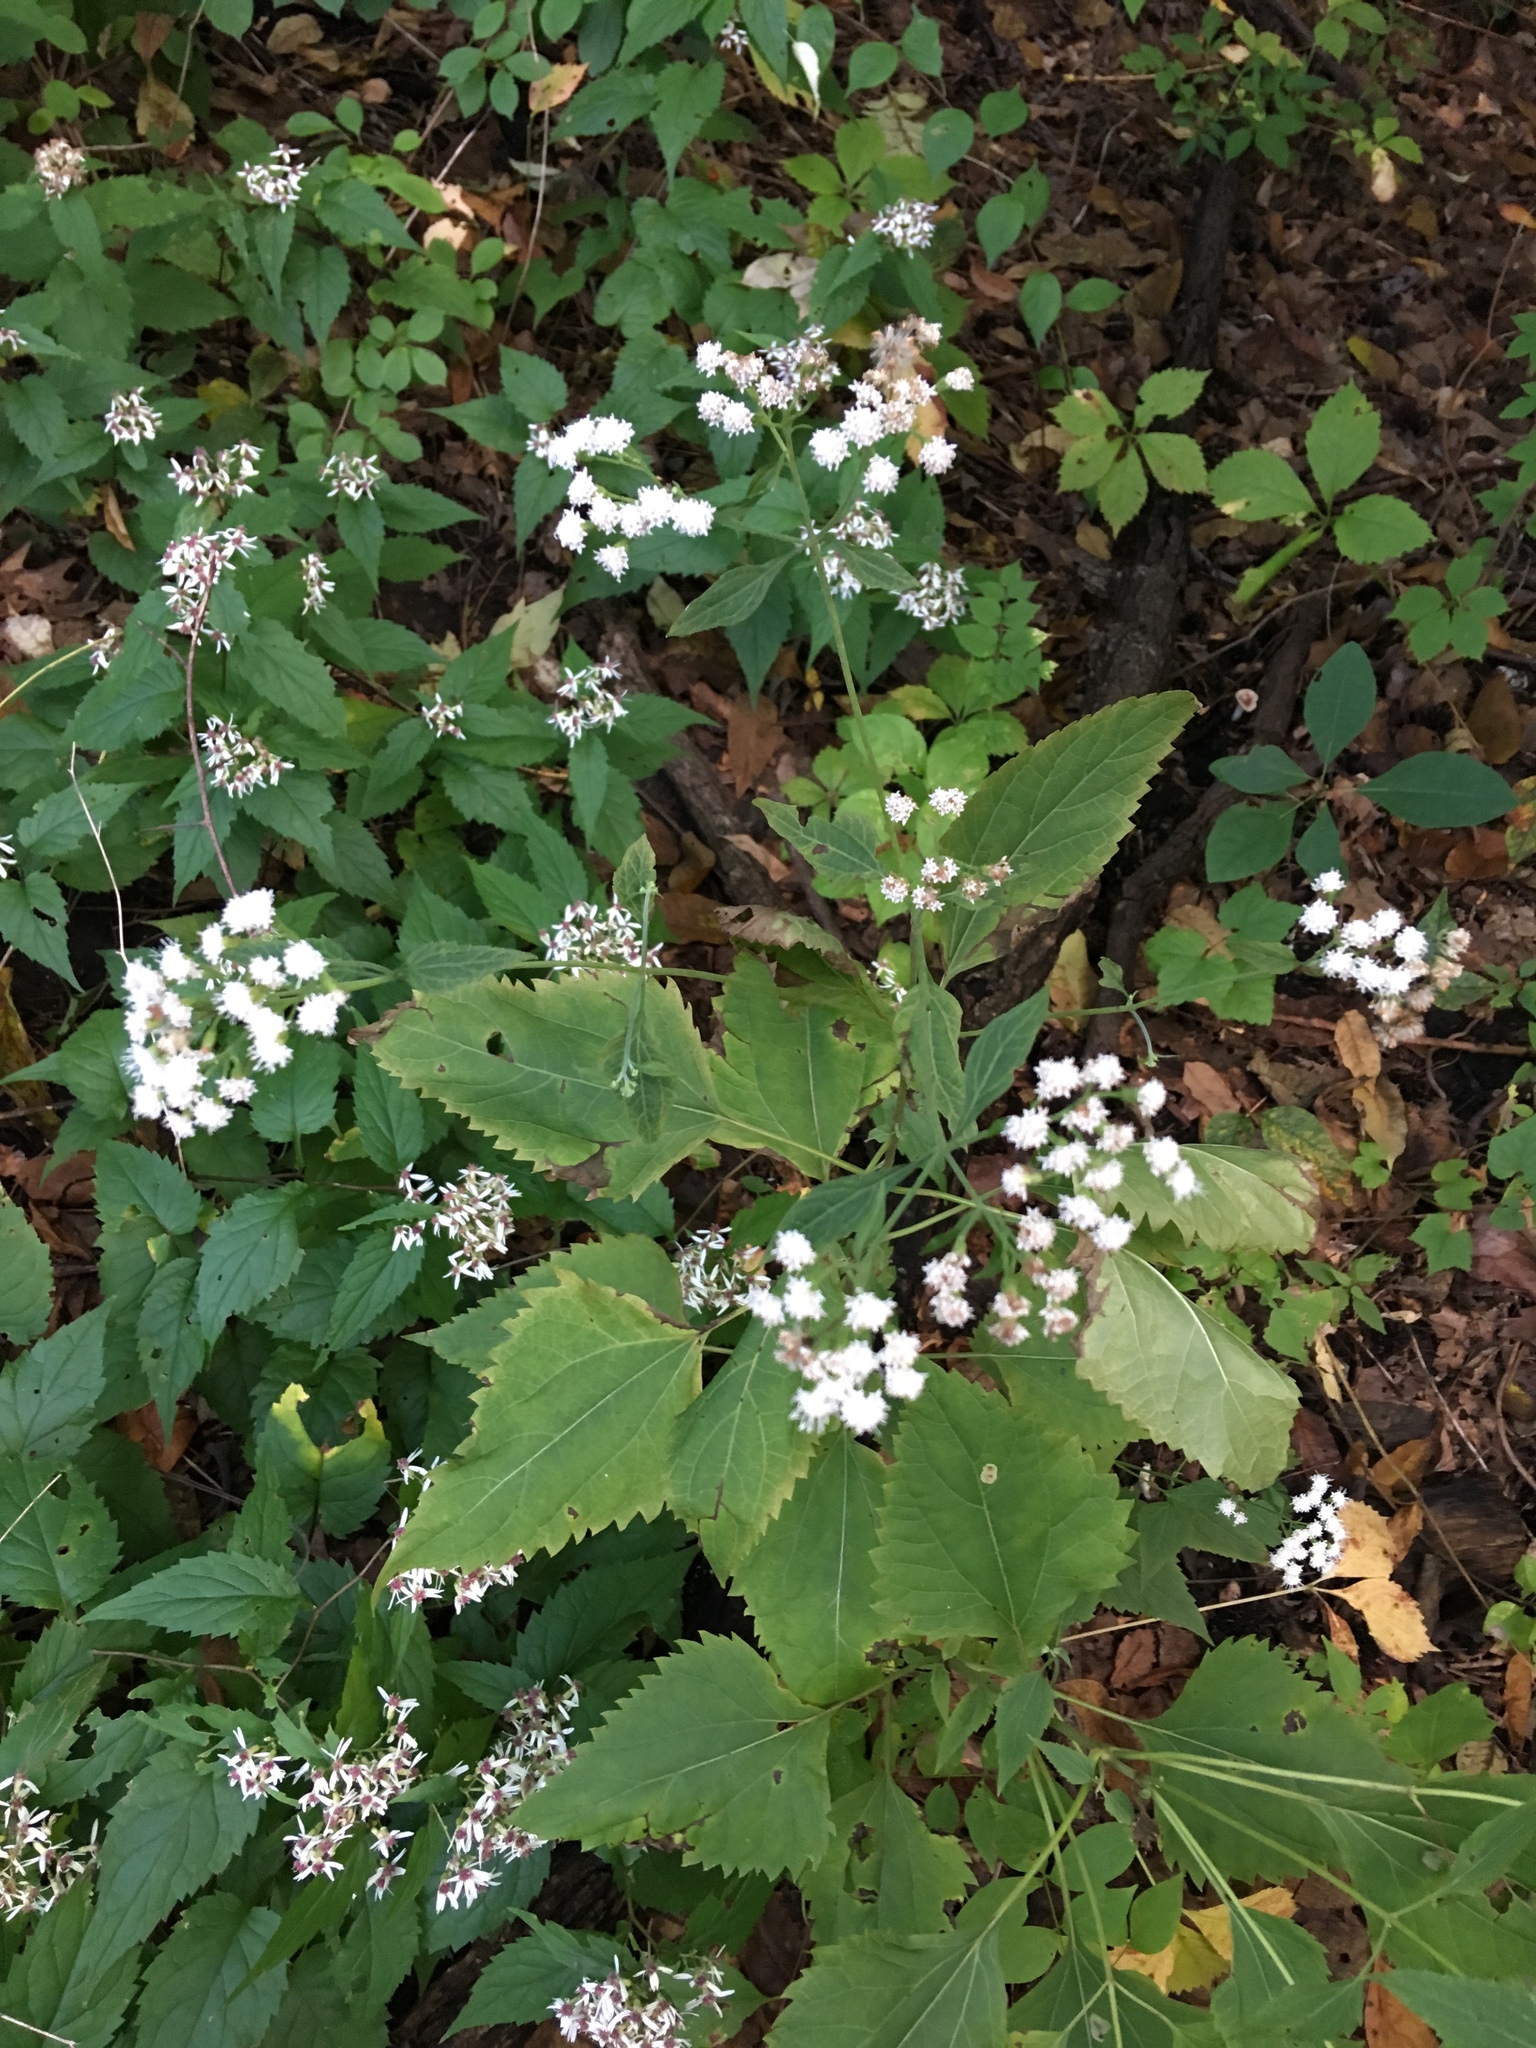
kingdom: Plantae
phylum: Tracheophyta
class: Magnoliopsida
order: Asterales
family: Asteraceae
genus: Ageratina
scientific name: Ageratina altissima
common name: White snakeroot
